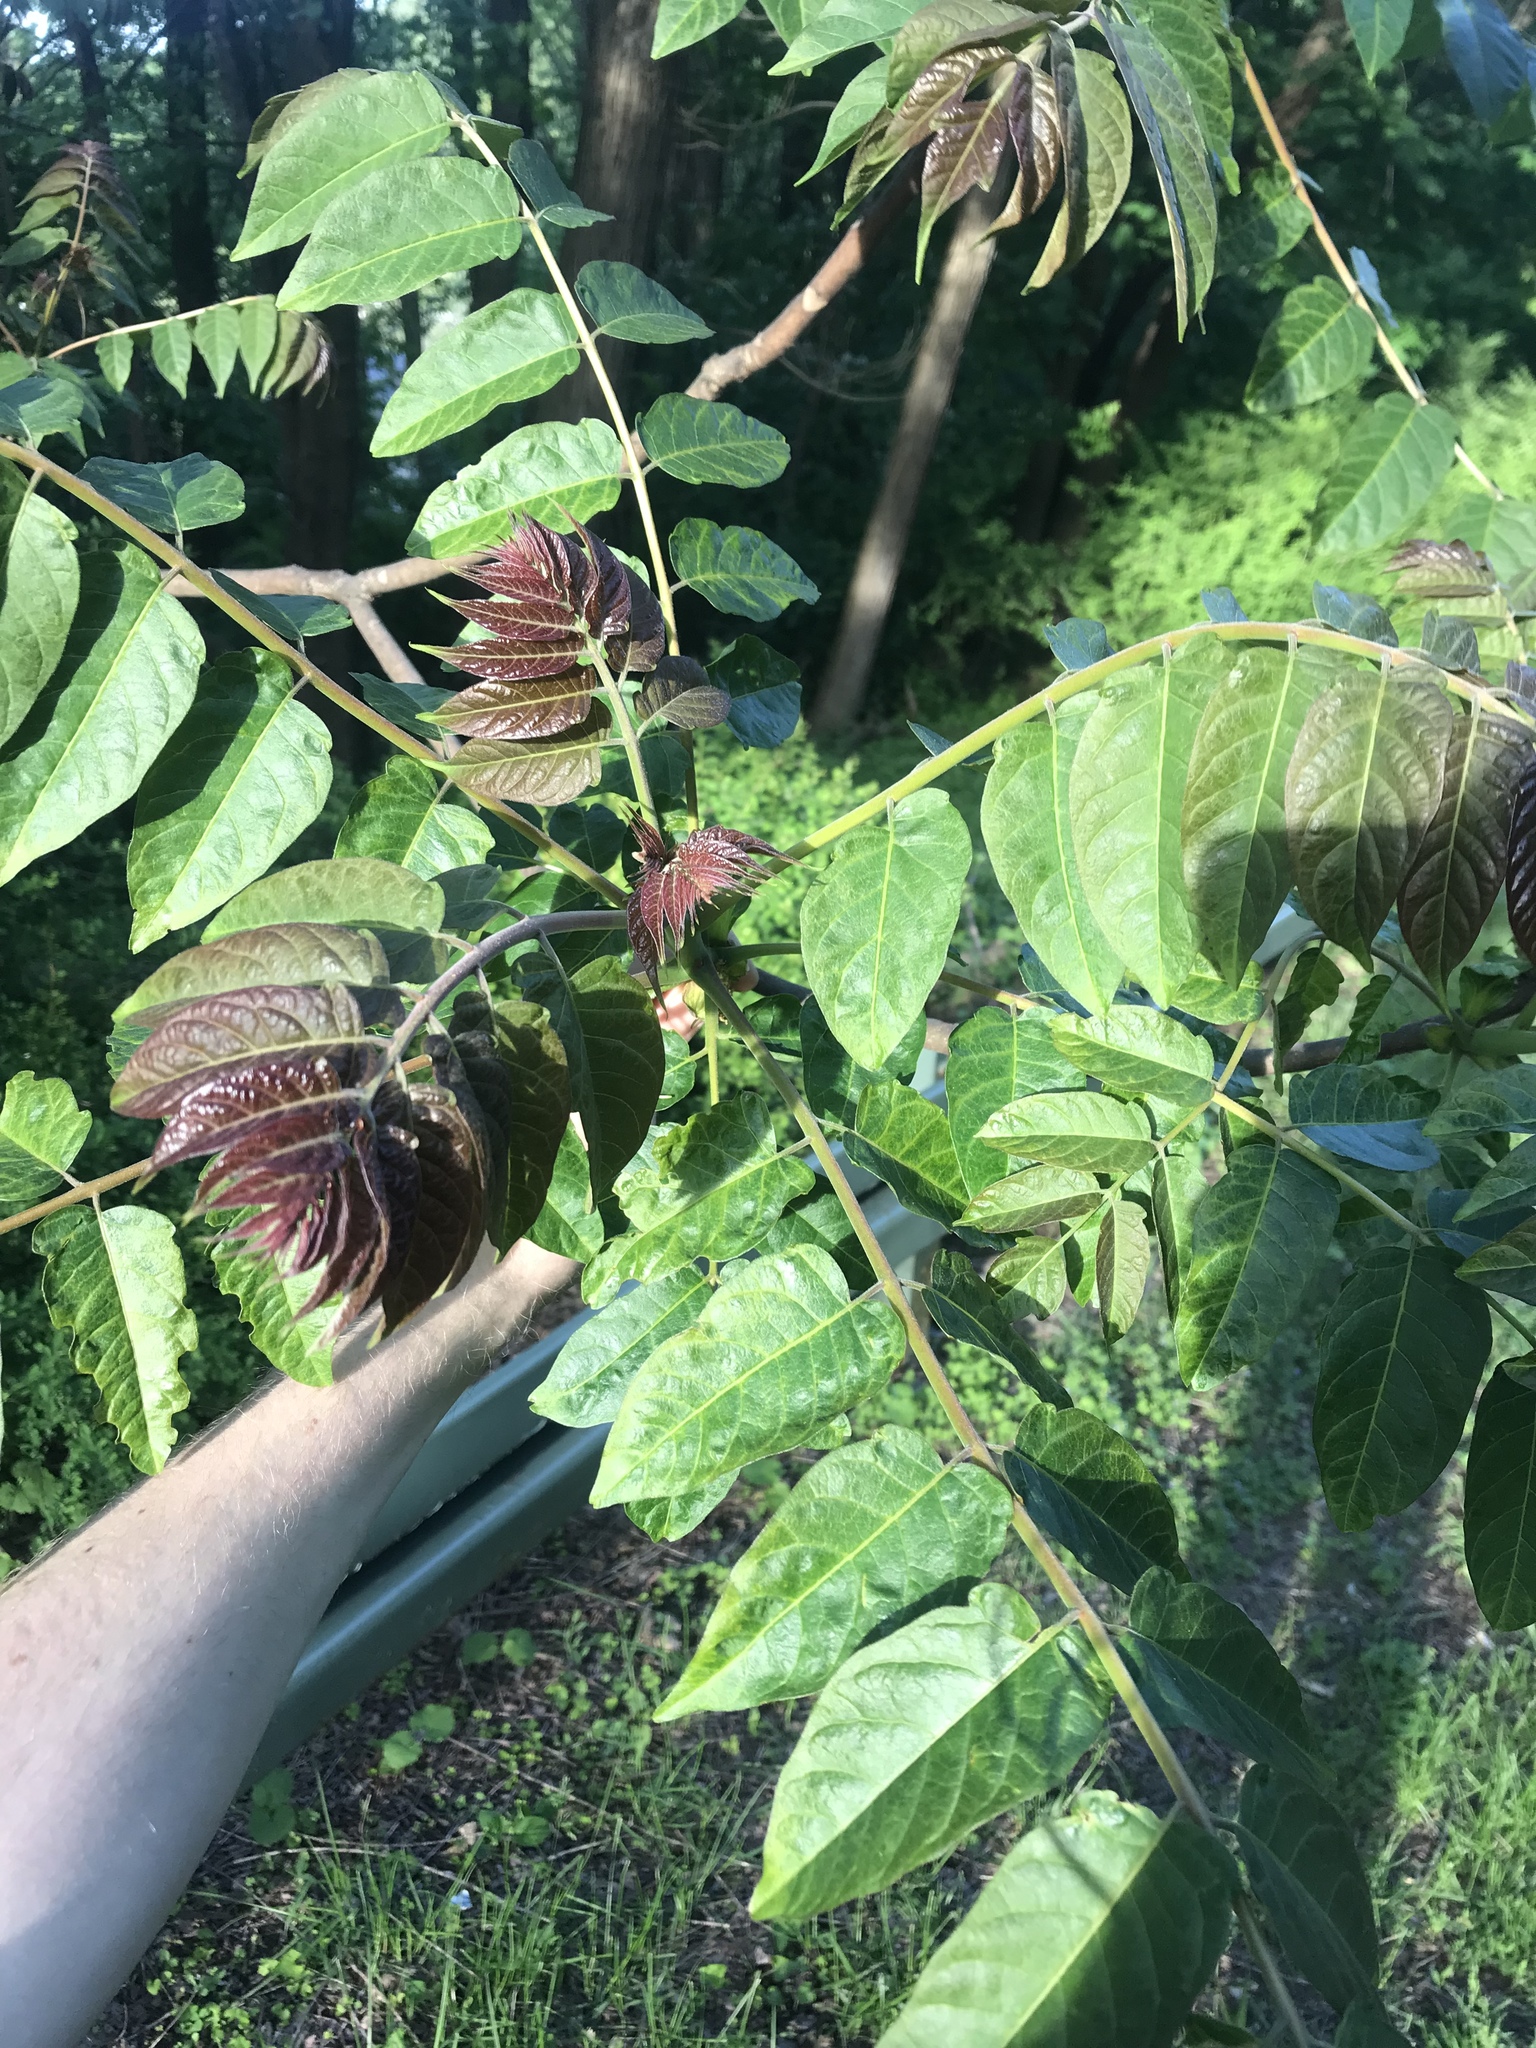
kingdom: Plantae
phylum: Tracheophyta
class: Magnoliopsida
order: Sapindales
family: Simaroubaceae
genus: Ailanthus
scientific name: Ailanthus altissima
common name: Tree-of-heaven
